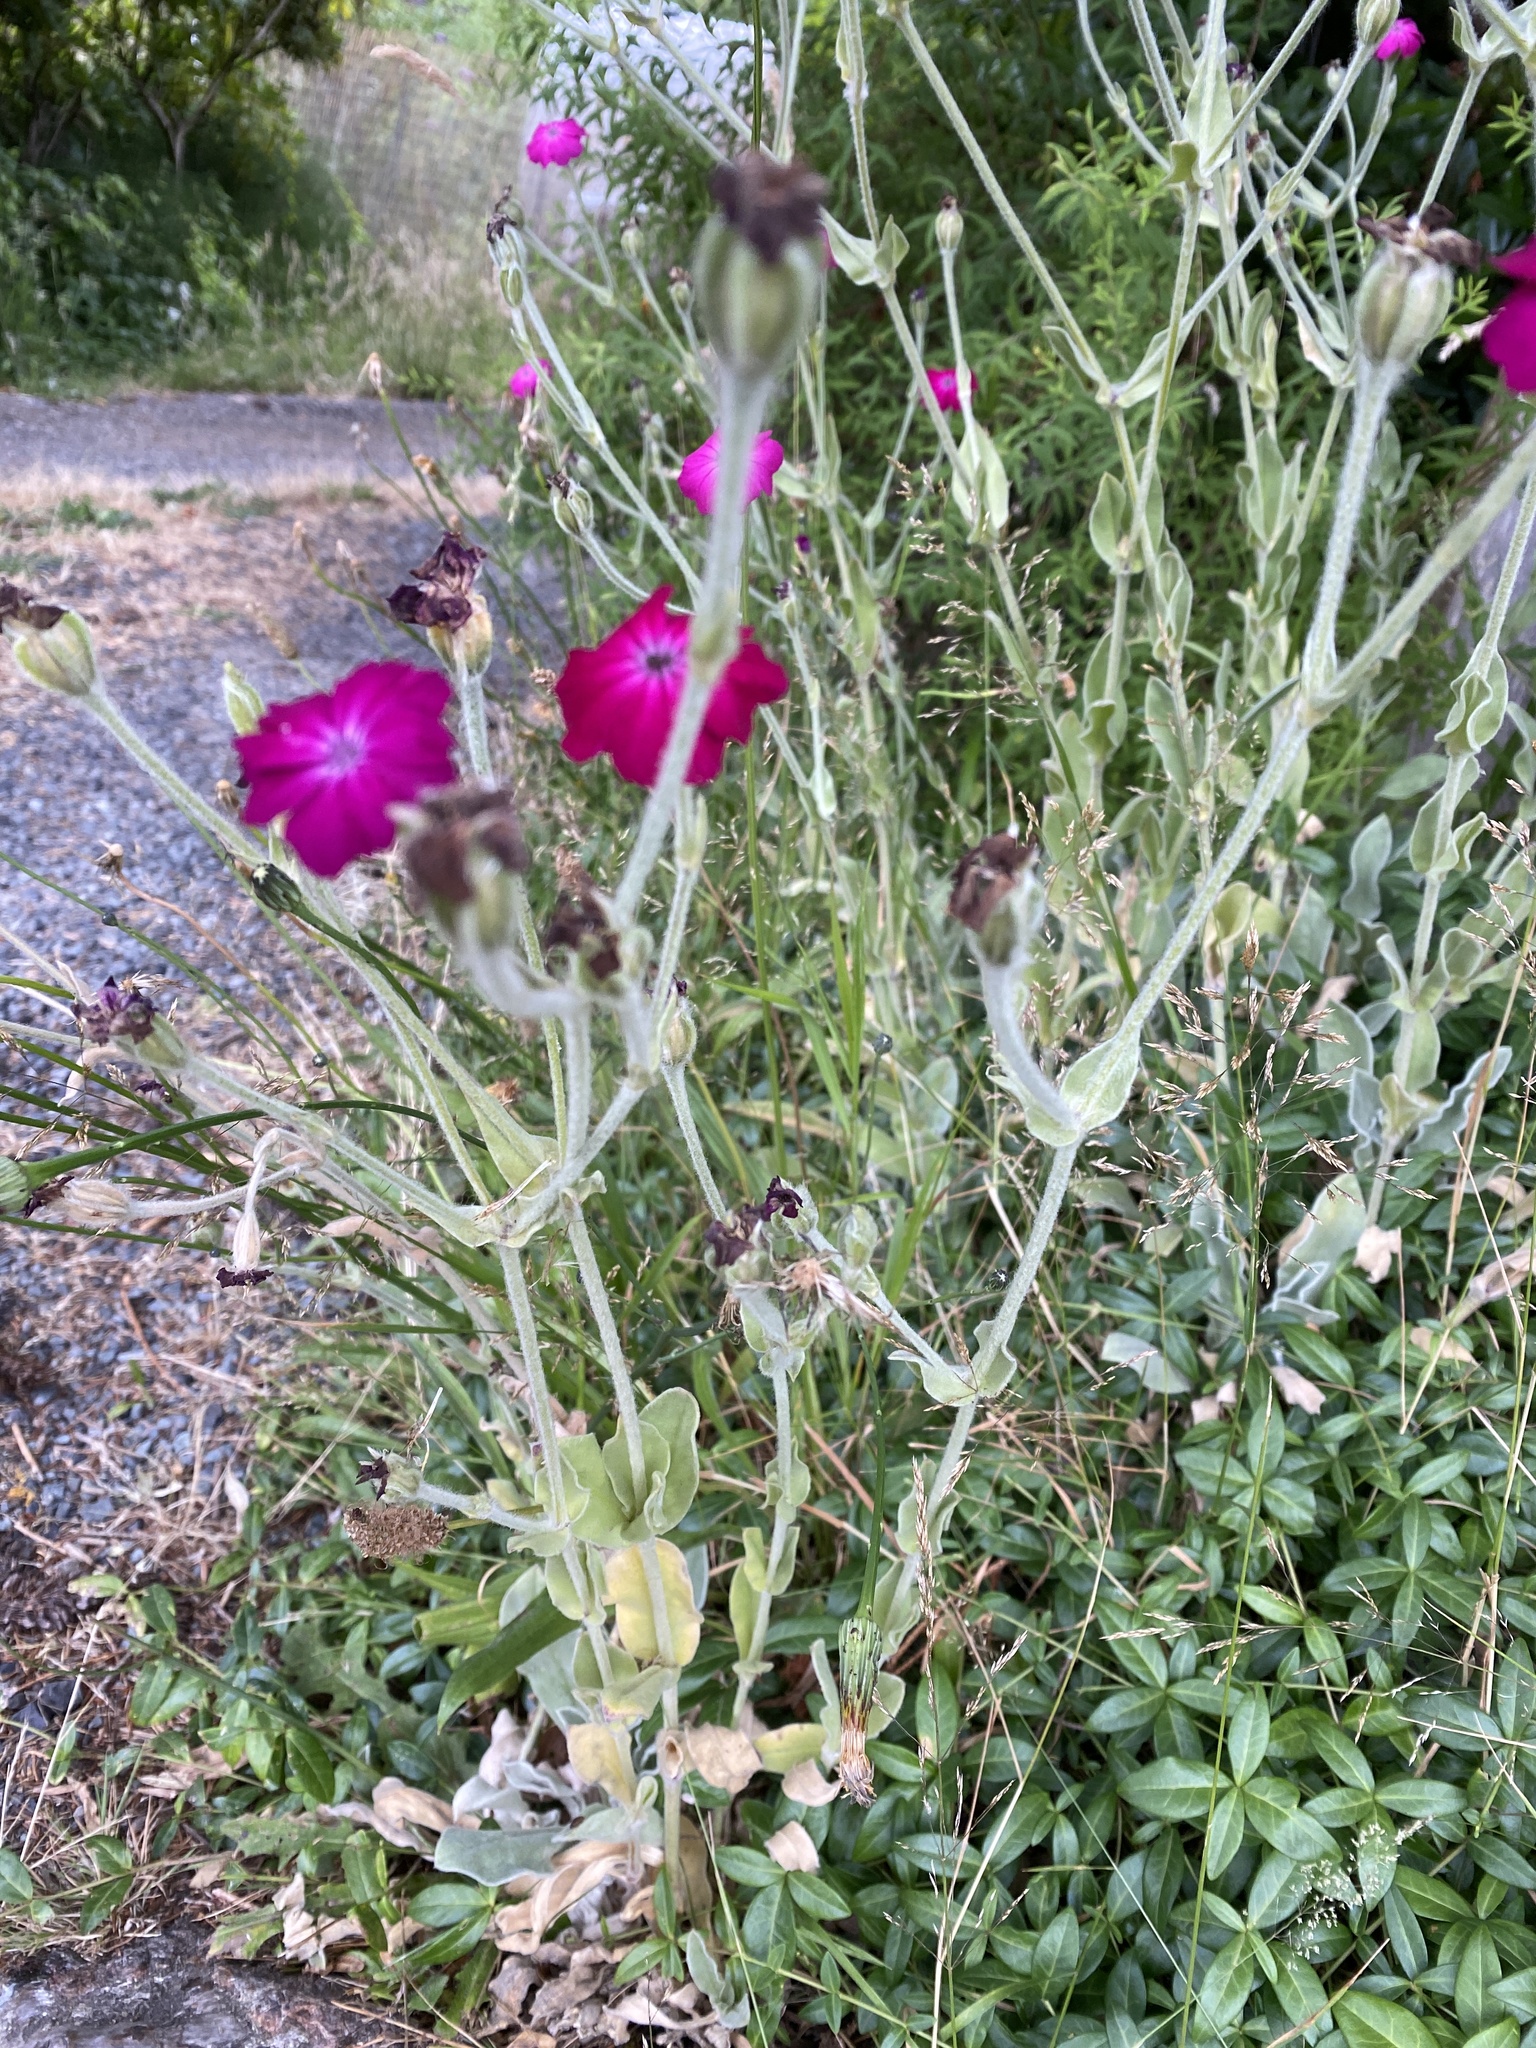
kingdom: Plantae
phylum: Tracheophyta
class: Magnoliopsida
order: Caryophyllales
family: Caryophyllaceae
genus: Silene
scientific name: Silene coronaria
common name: Rose campion
